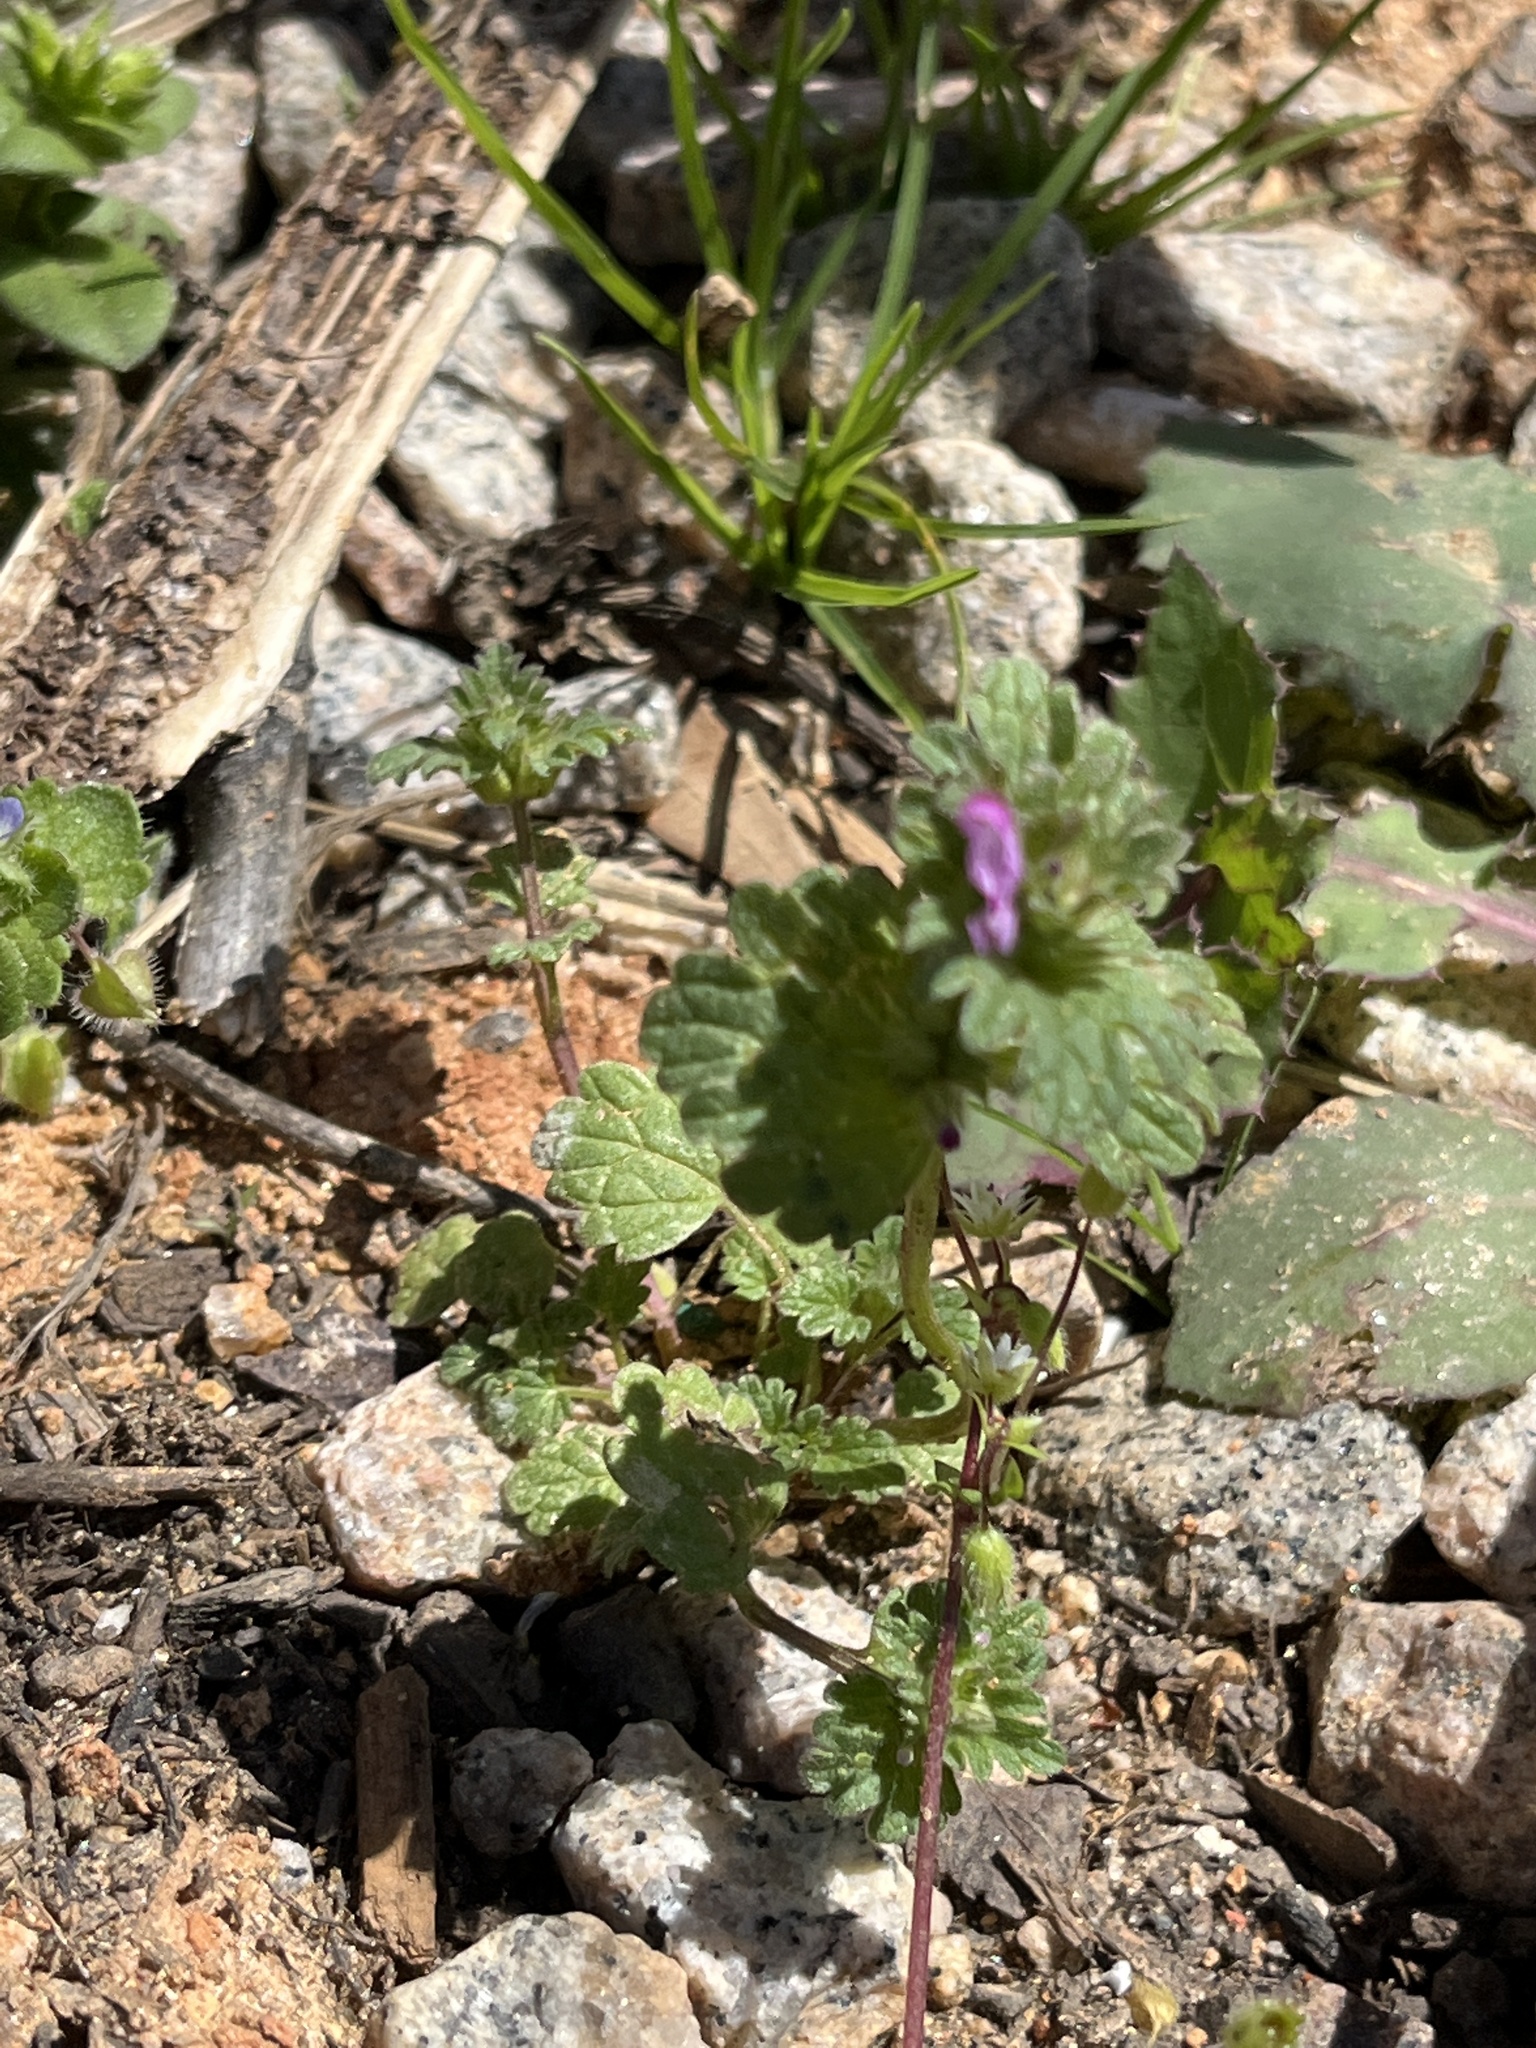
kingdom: Plantae
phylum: Tracheophyta
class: Magnoliopsida
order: Lamiales
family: Lamiaceae
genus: Lamium
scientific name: Lamium amplexicaule
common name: Henbit dead-nettle
